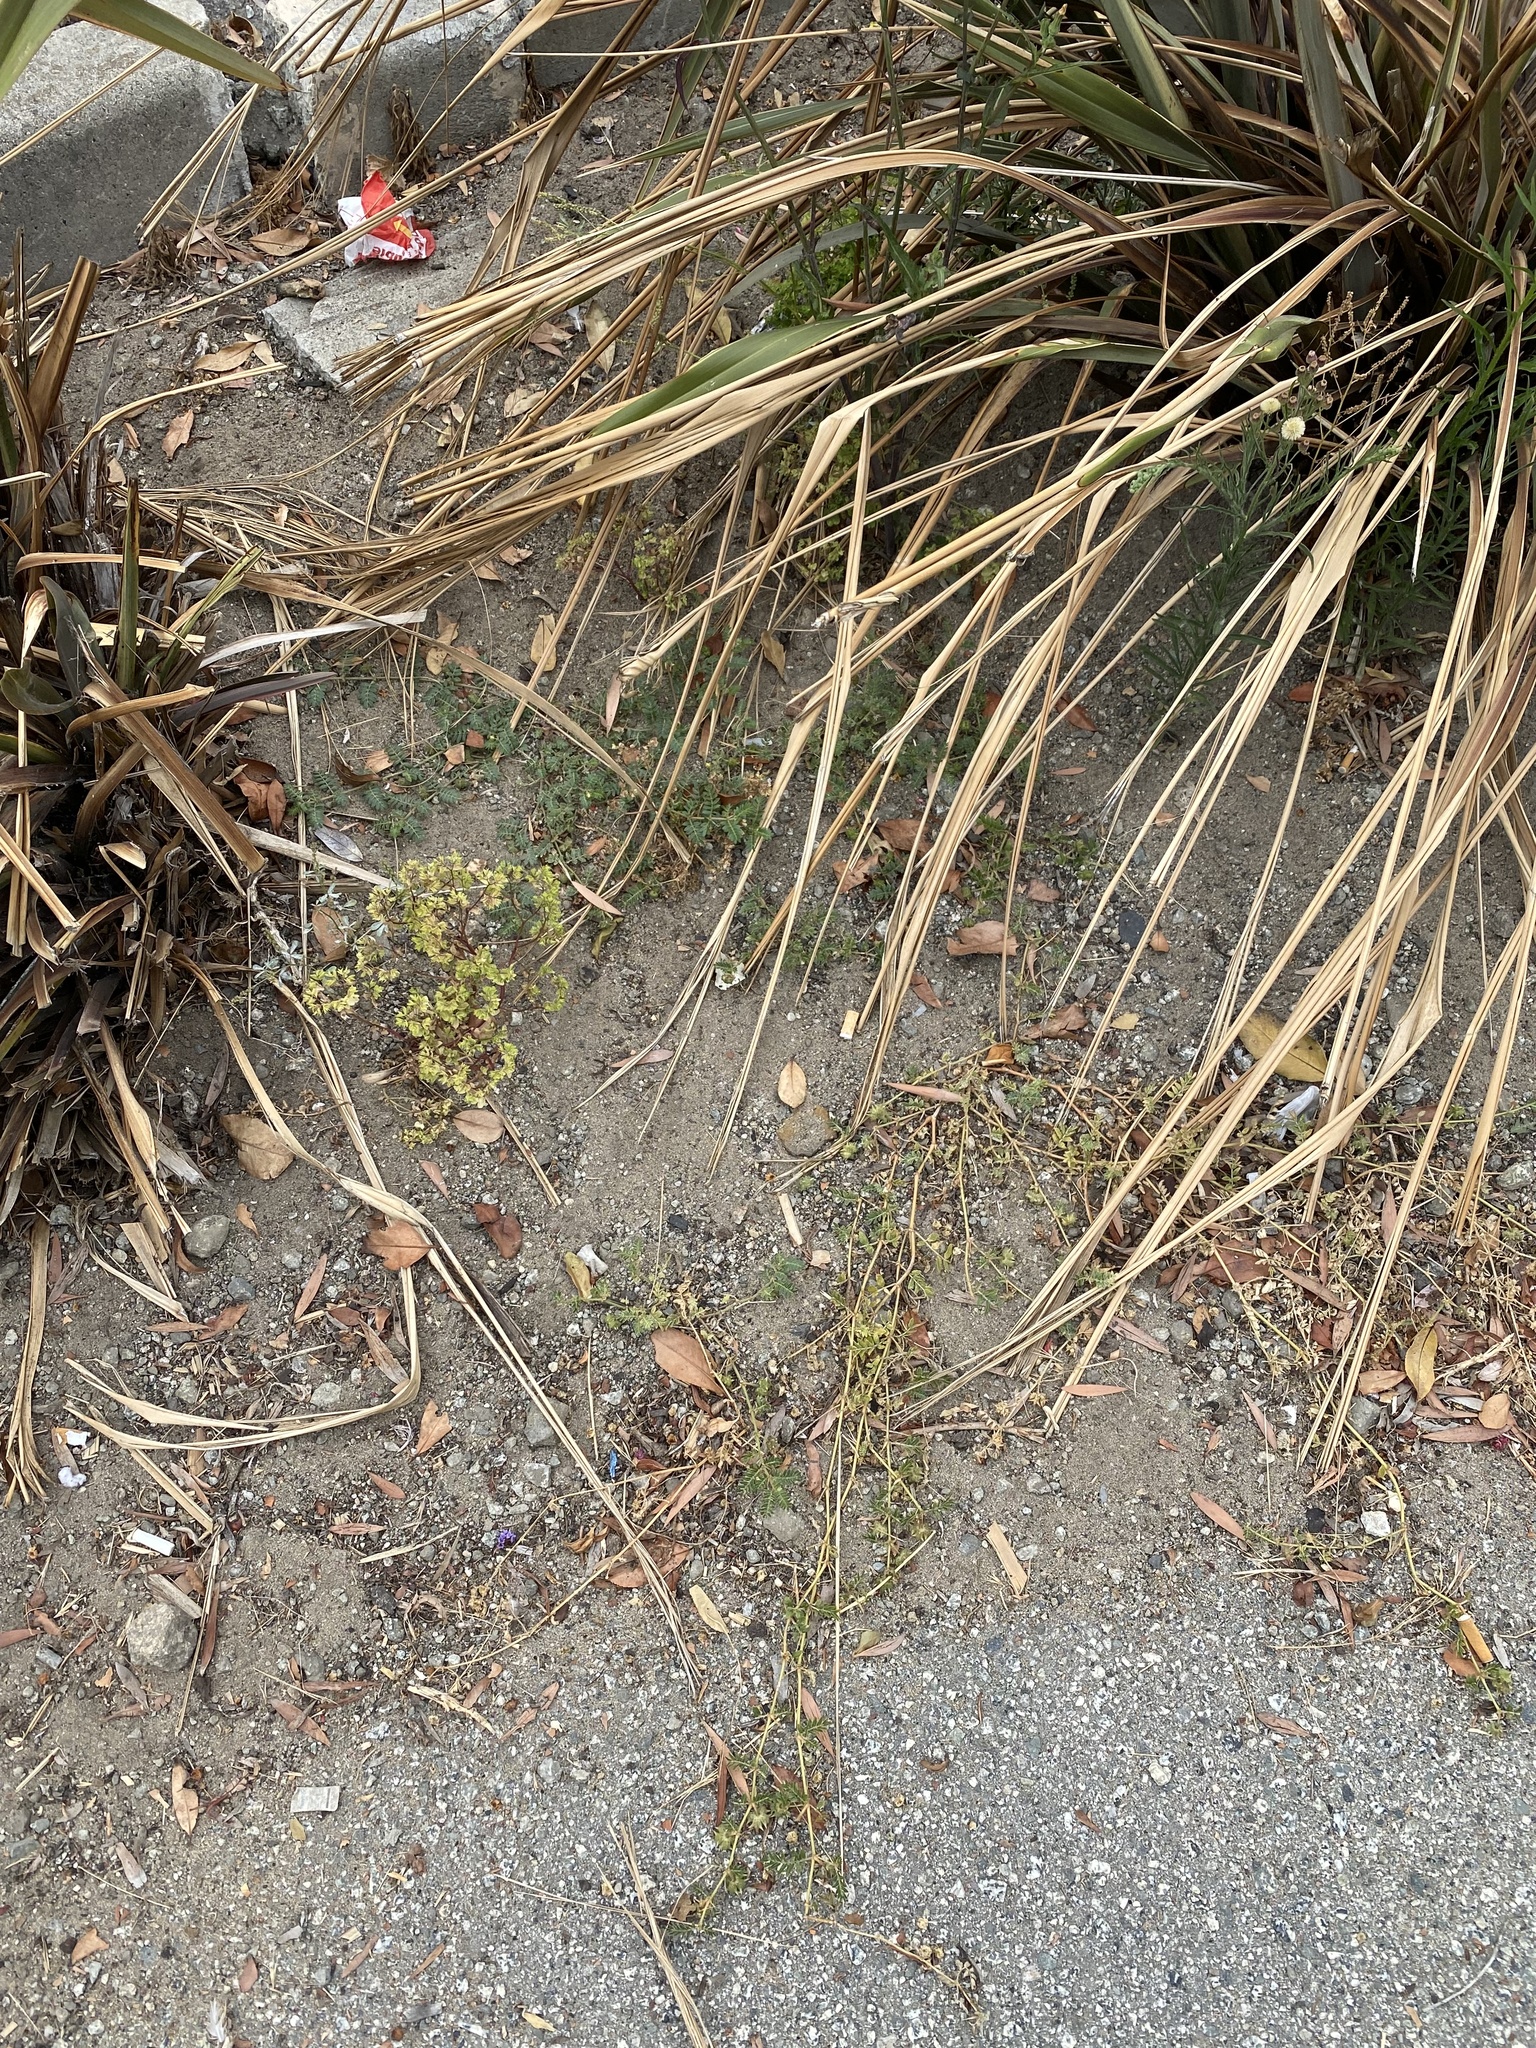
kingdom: Plantae
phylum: Tracheophyta
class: Magnoliopsida
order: Zygophyllales
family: Zygophyllaceae
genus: Tribulus
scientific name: Tribulus terrestris
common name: Puncturevine
